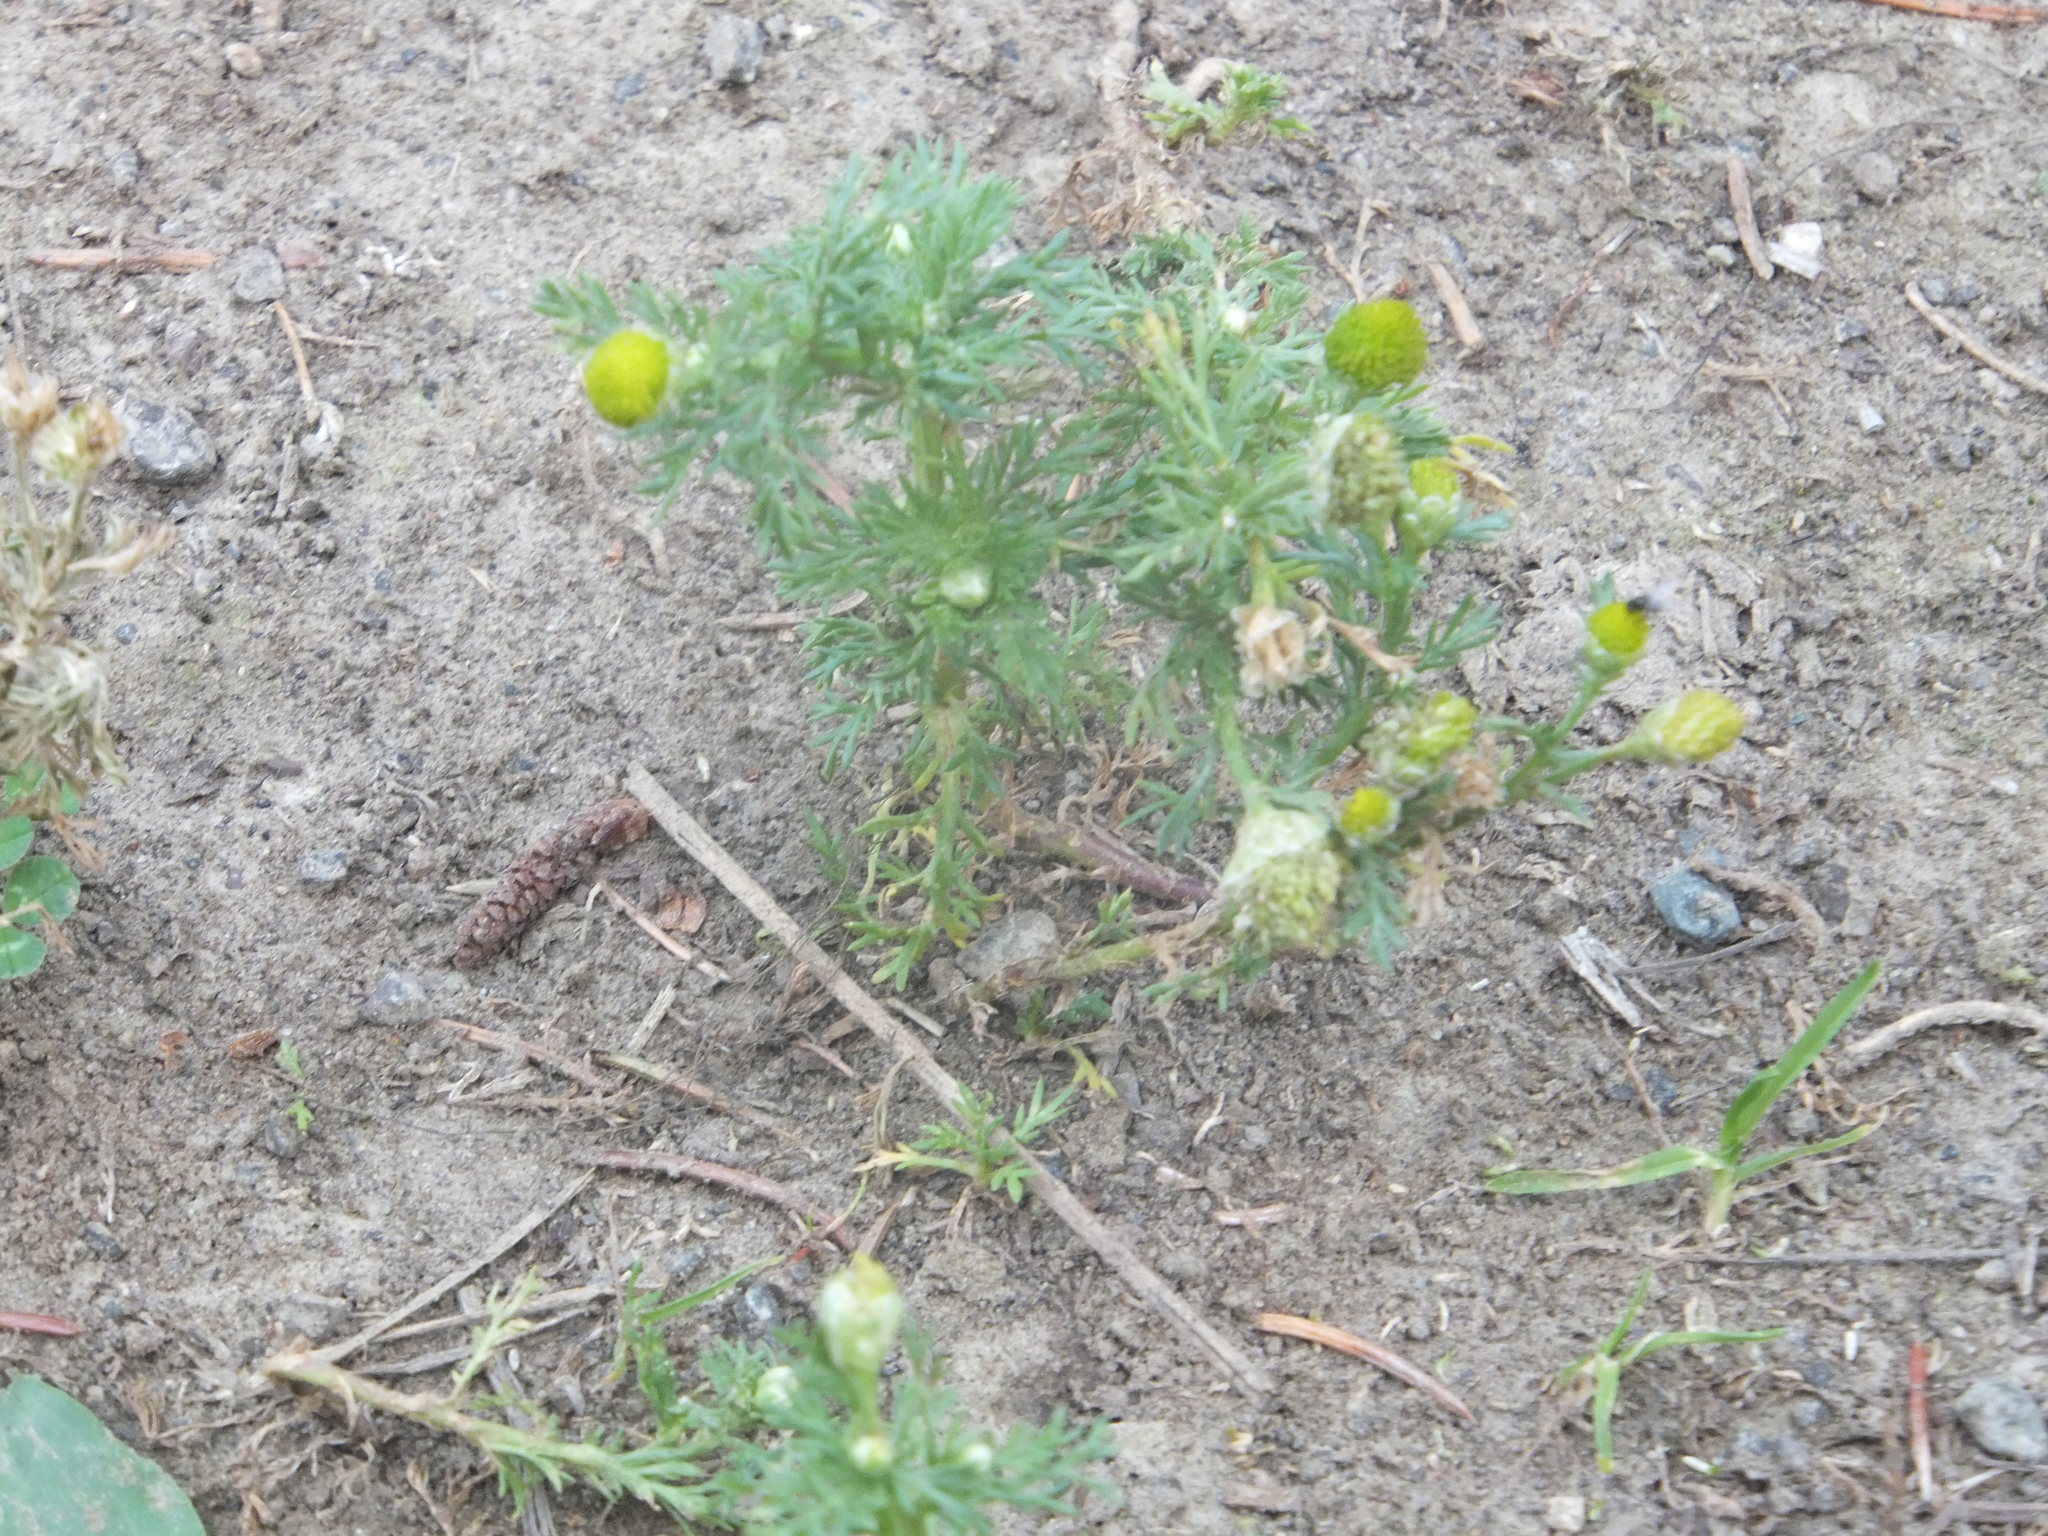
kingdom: Plantae
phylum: Tracheophyta
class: Magnoliopsida
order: Asterales
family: Asteraceae
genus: Matricaria
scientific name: Matricaria discoidea
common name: Disc mayweed
